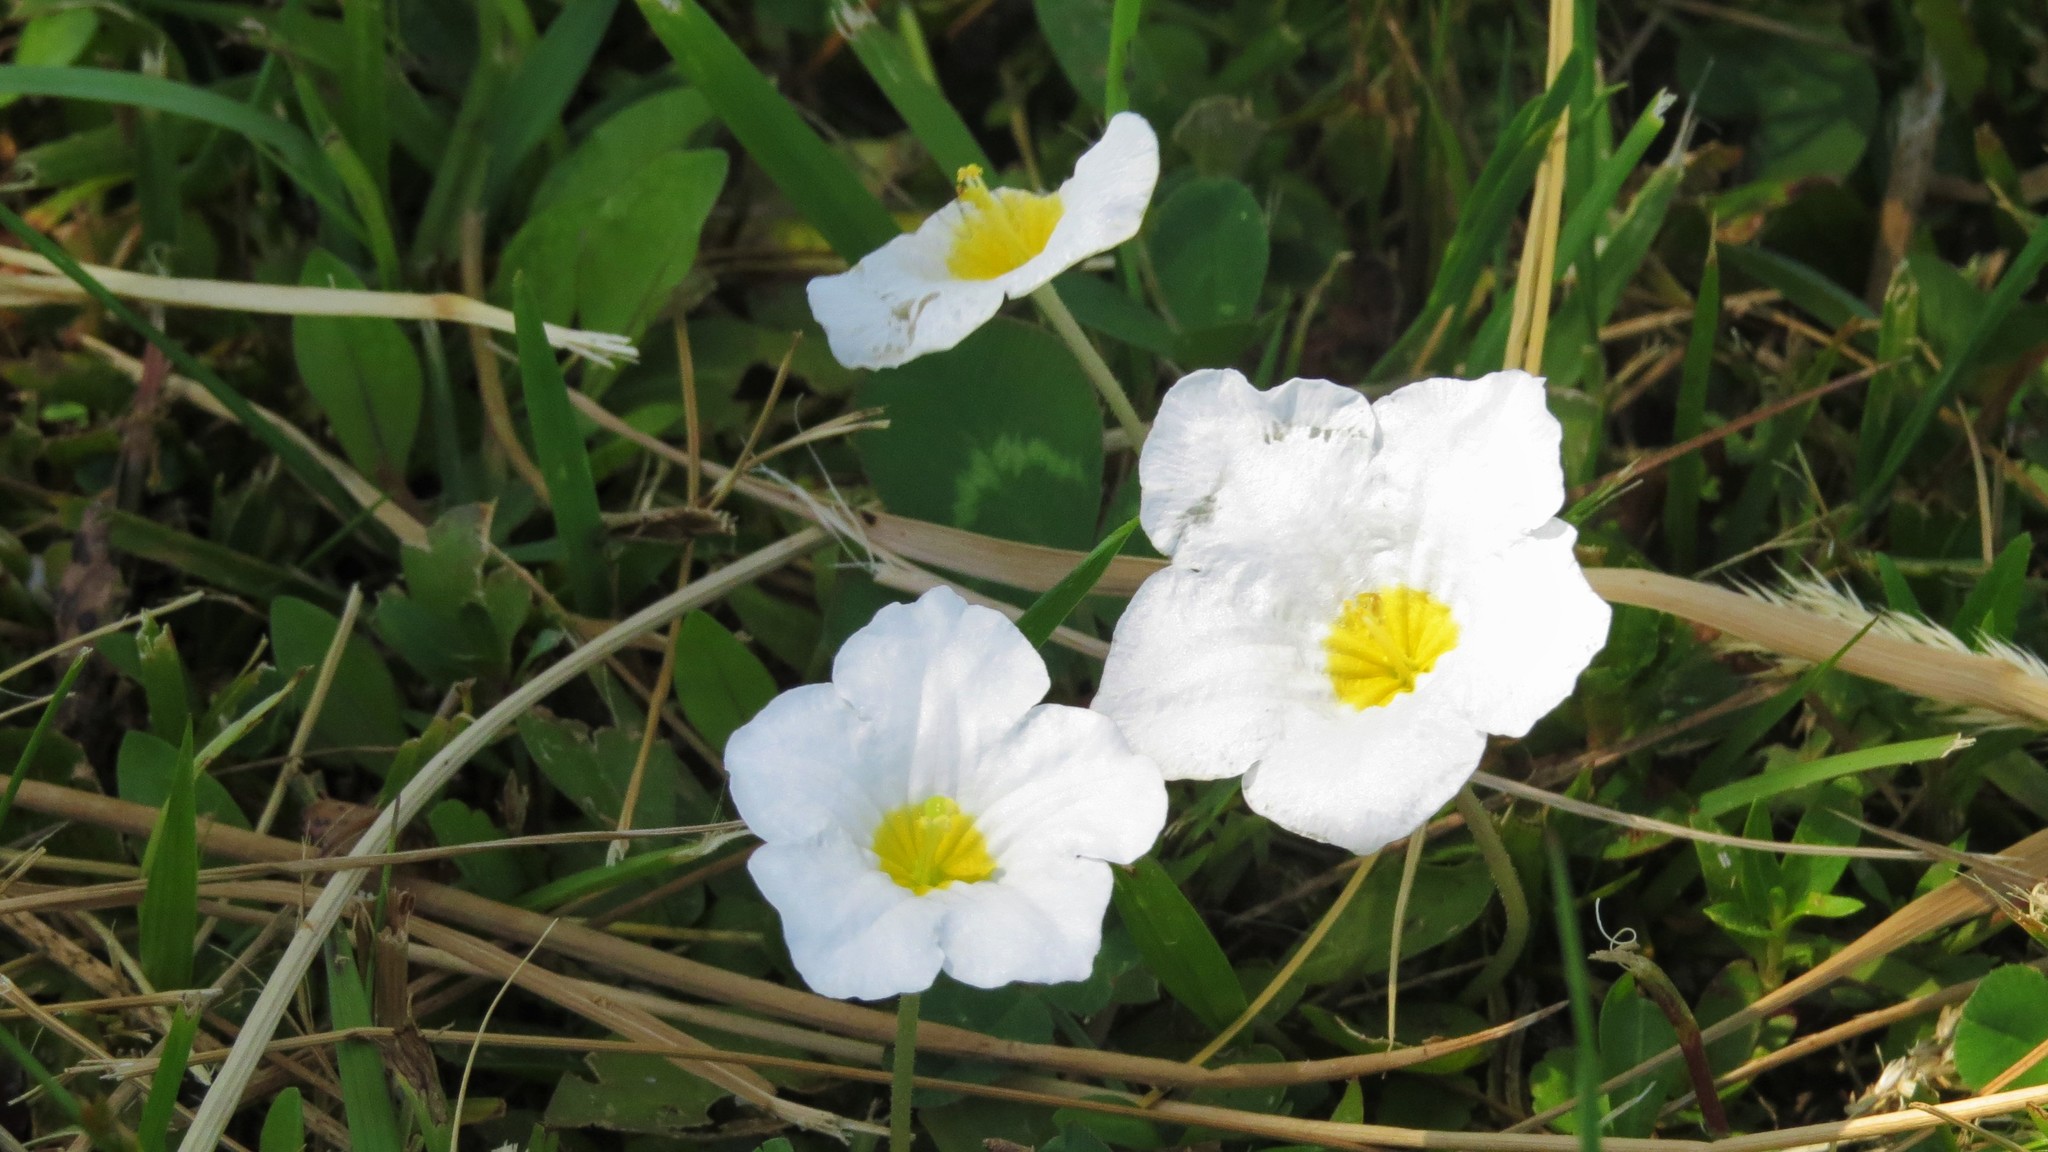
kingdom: Plantae
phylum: Tracheophyta
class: Magnoliopsida
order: Solanales
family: Solanaceae
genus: Nierembergia
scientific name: Nierembergia rivularis
